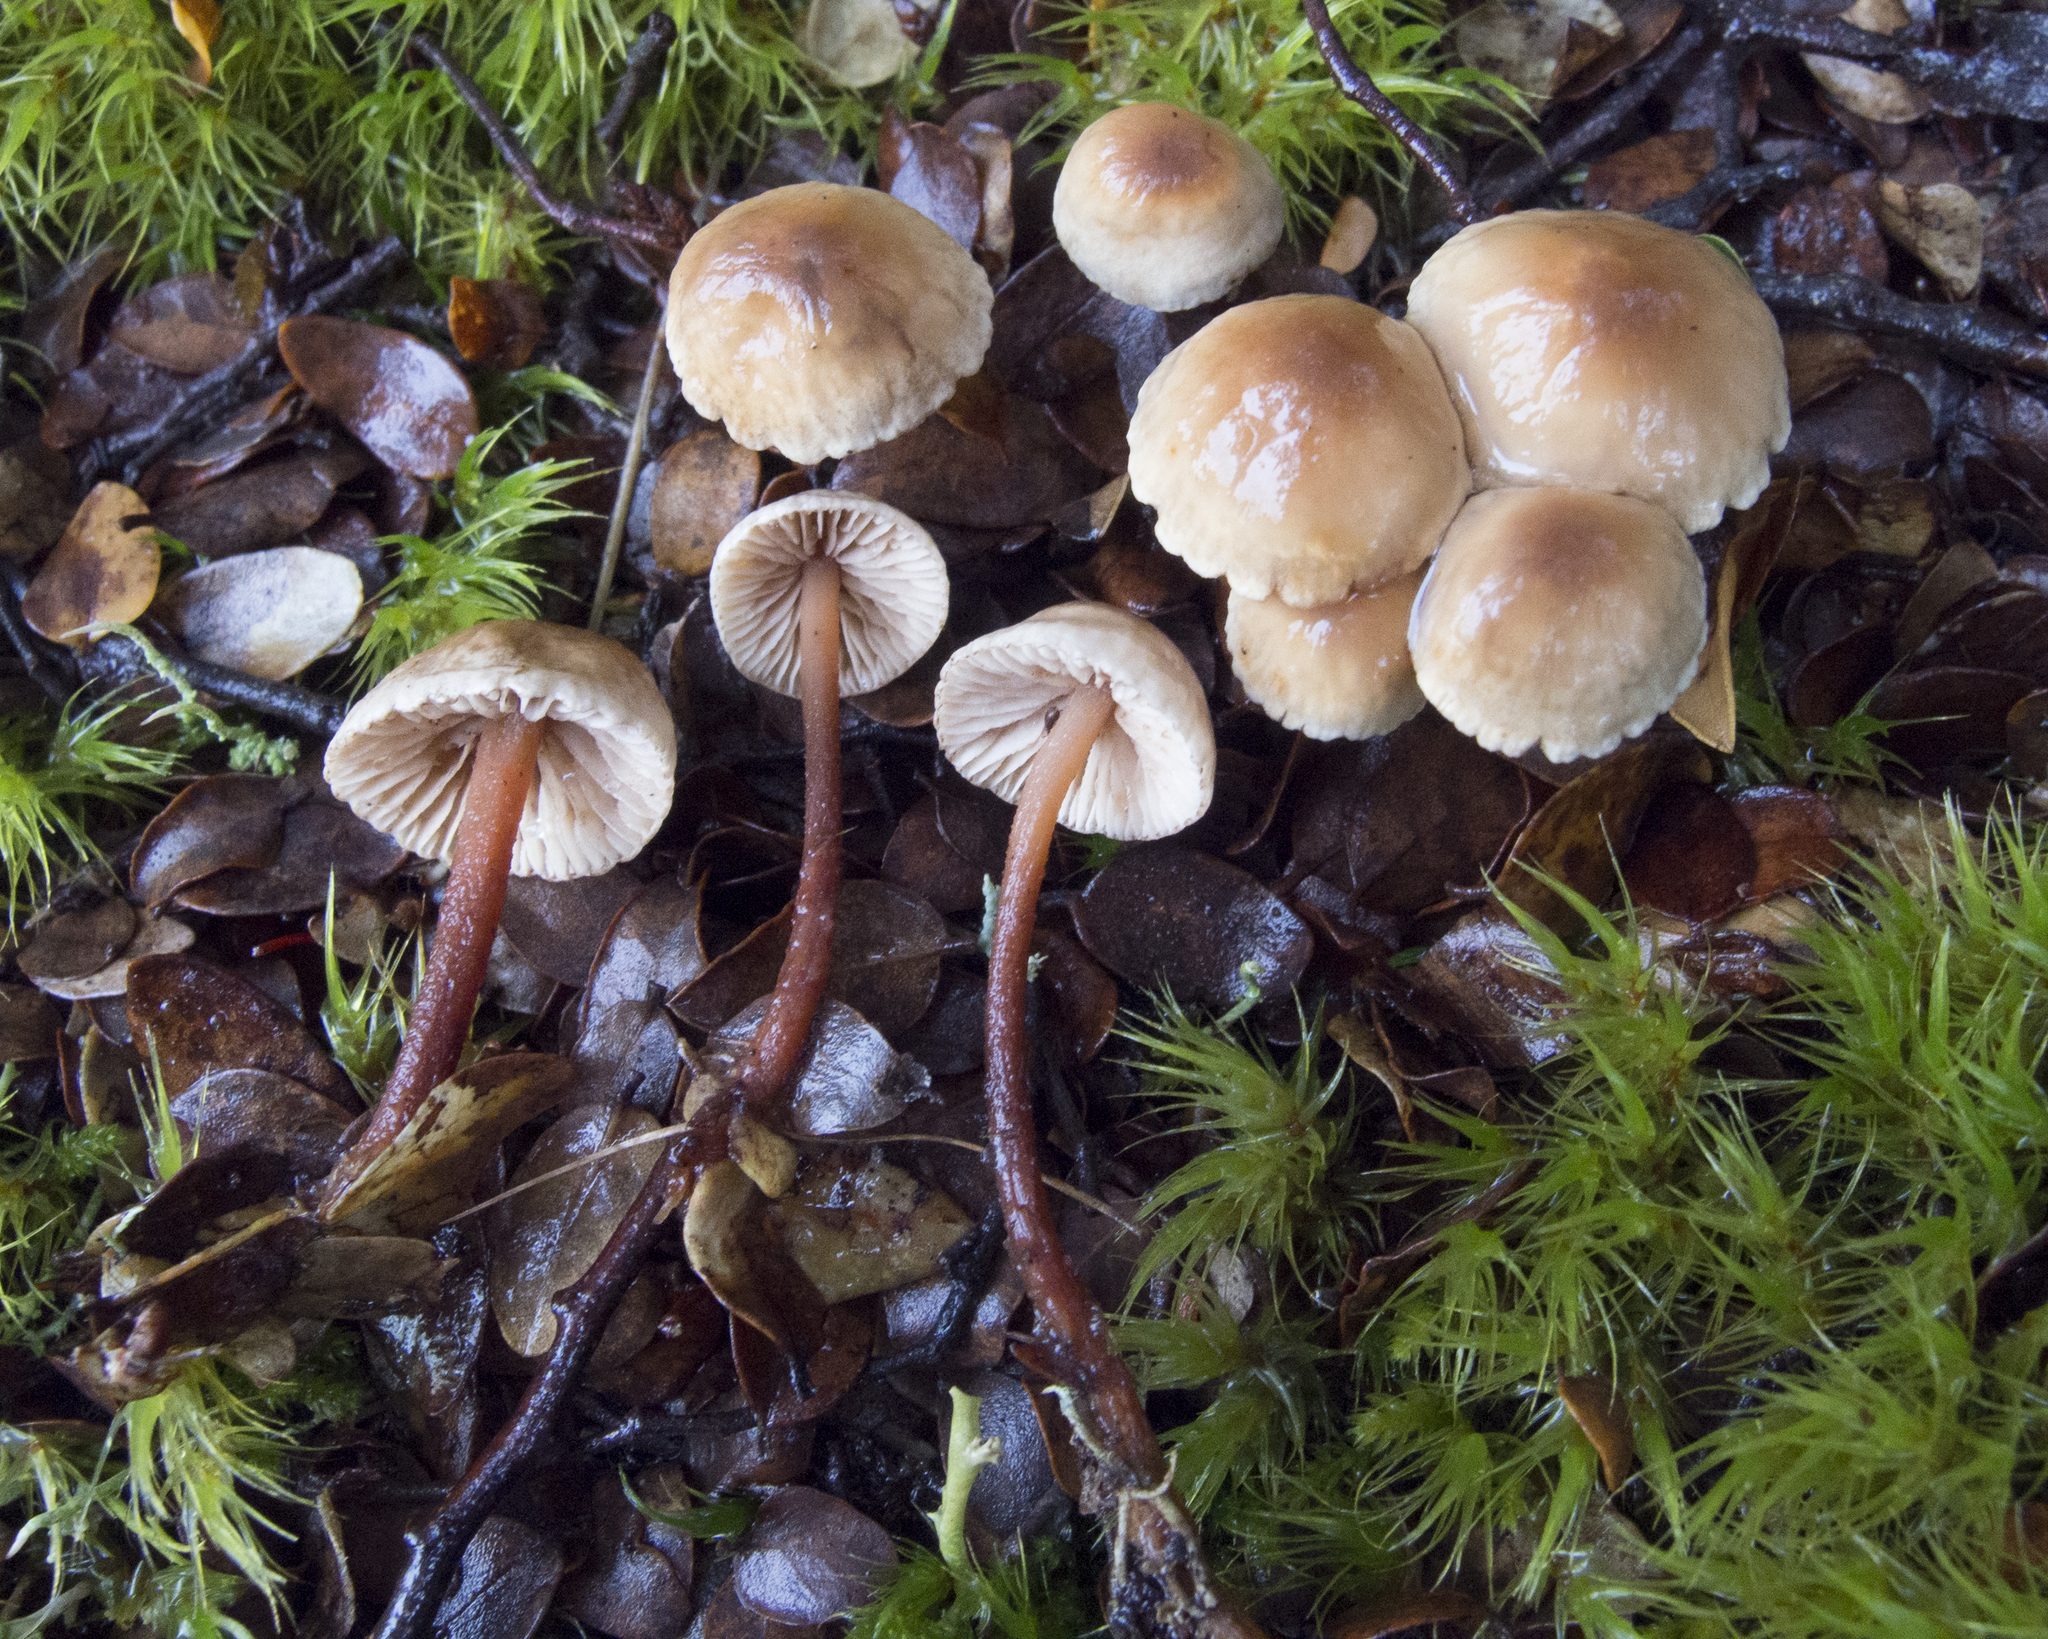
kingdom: Fungi
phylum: Basidiomycota
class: Agaricomycetes
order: Agaricales
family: Omphalotaceae
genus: Gymnopus
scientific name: Gymnopus cockaynei
